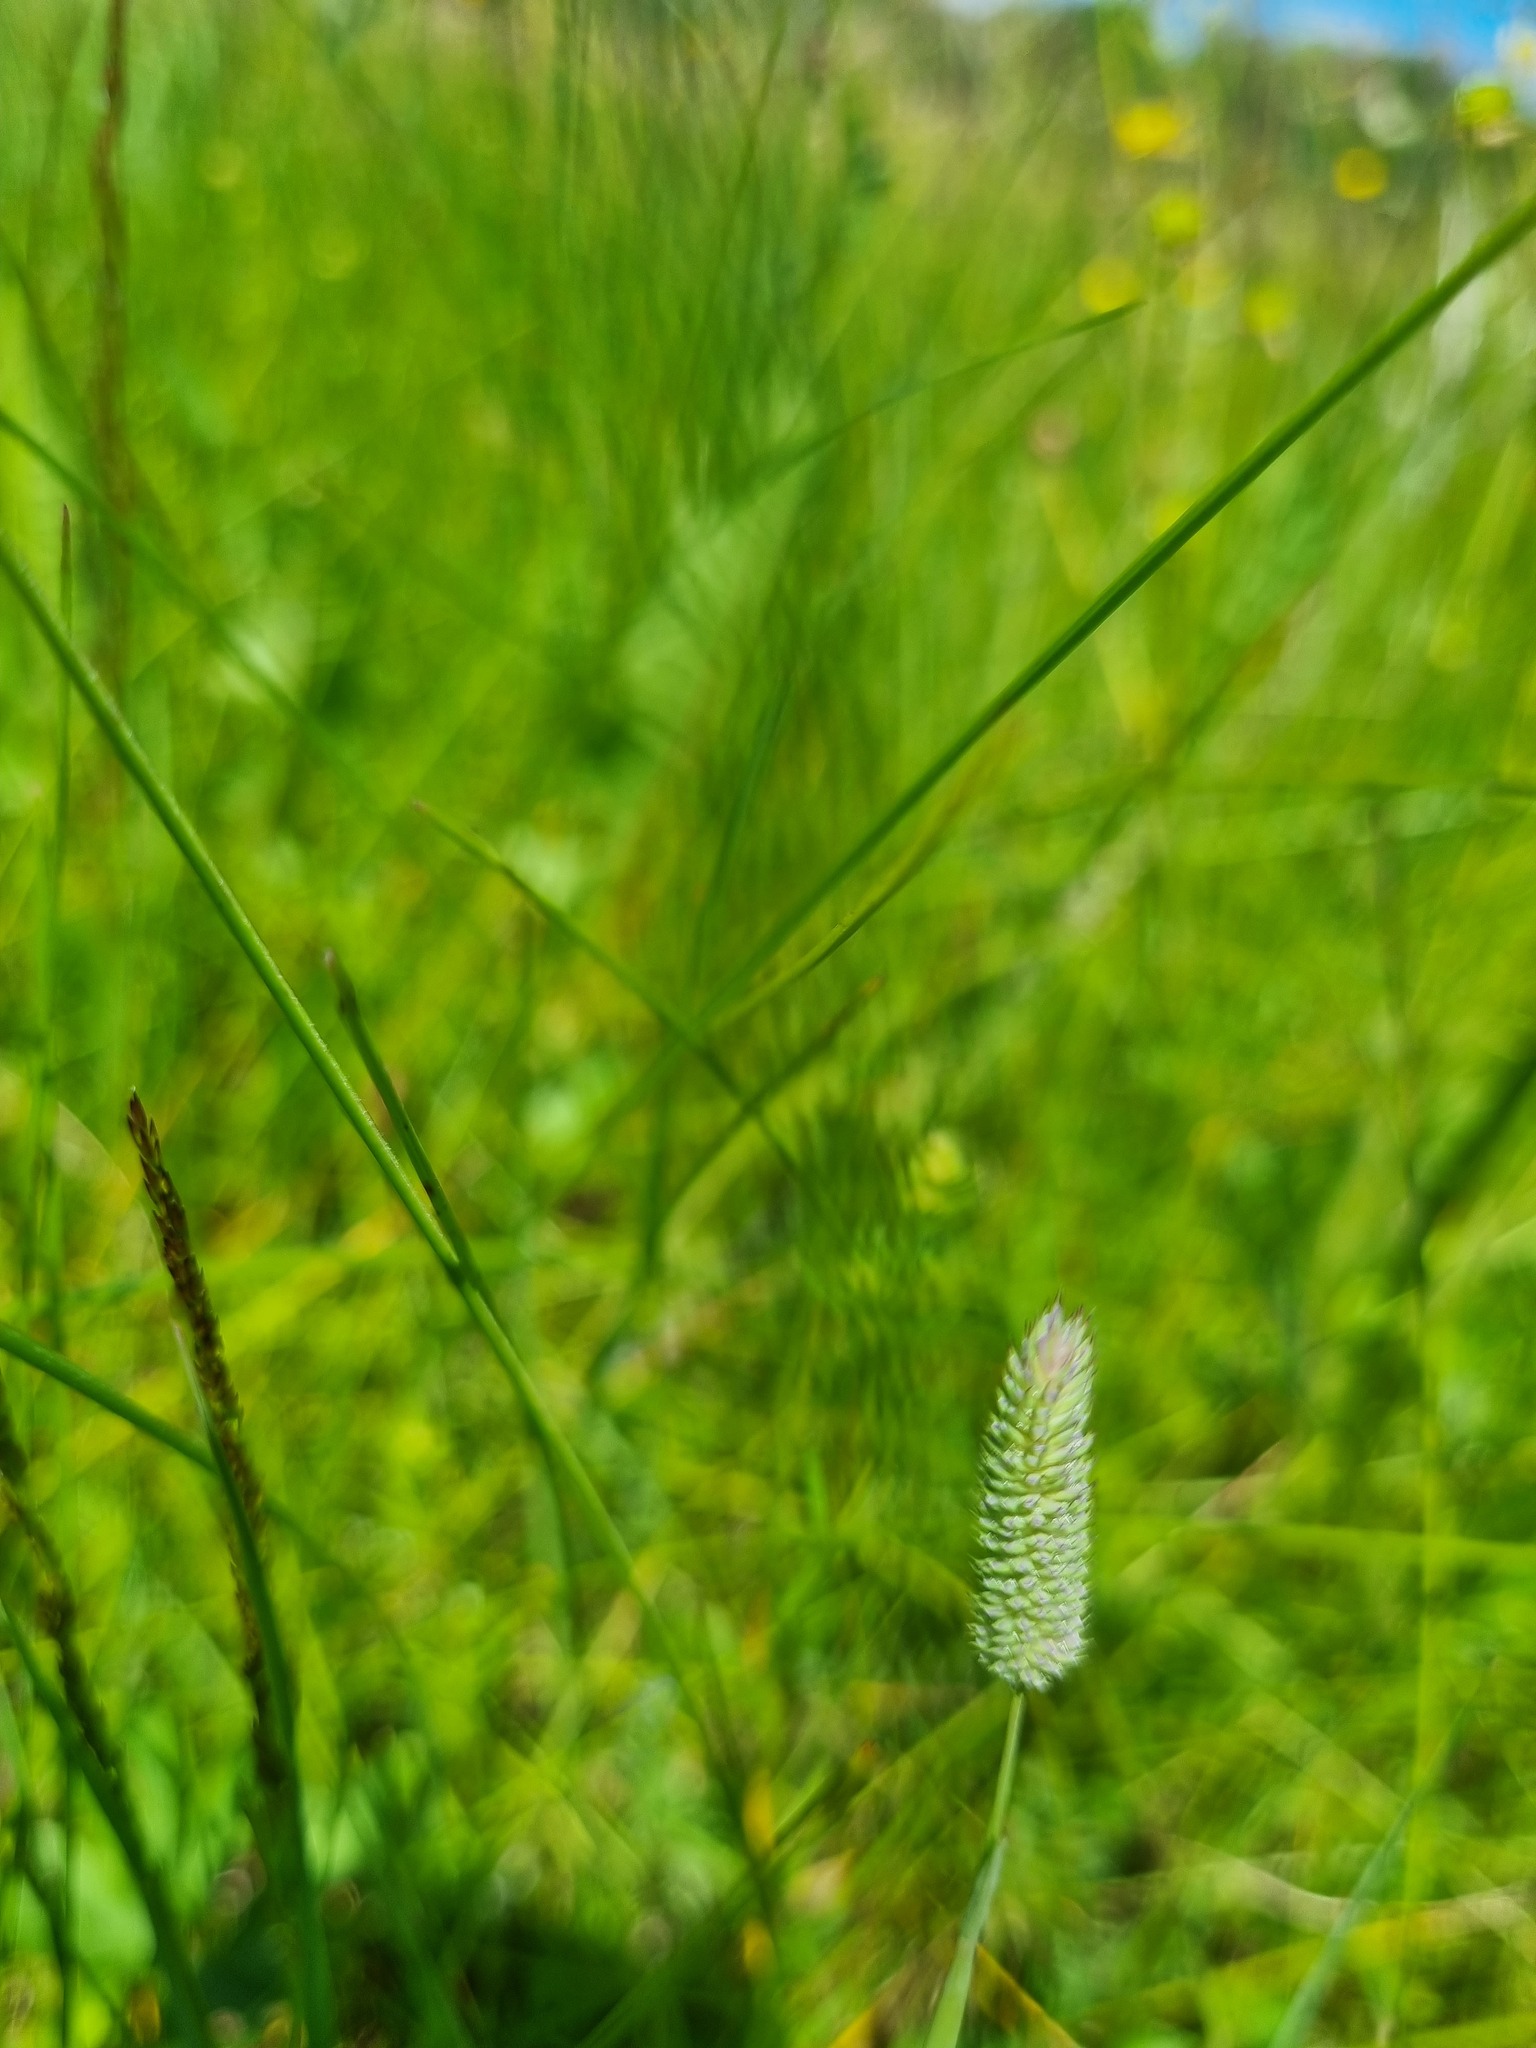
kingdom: Plantae
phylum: Tracheophyta
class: Liliopsida
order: Poales
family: Poaceae
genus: Phleum
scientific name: Phleum pratense
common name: Timothy grass
